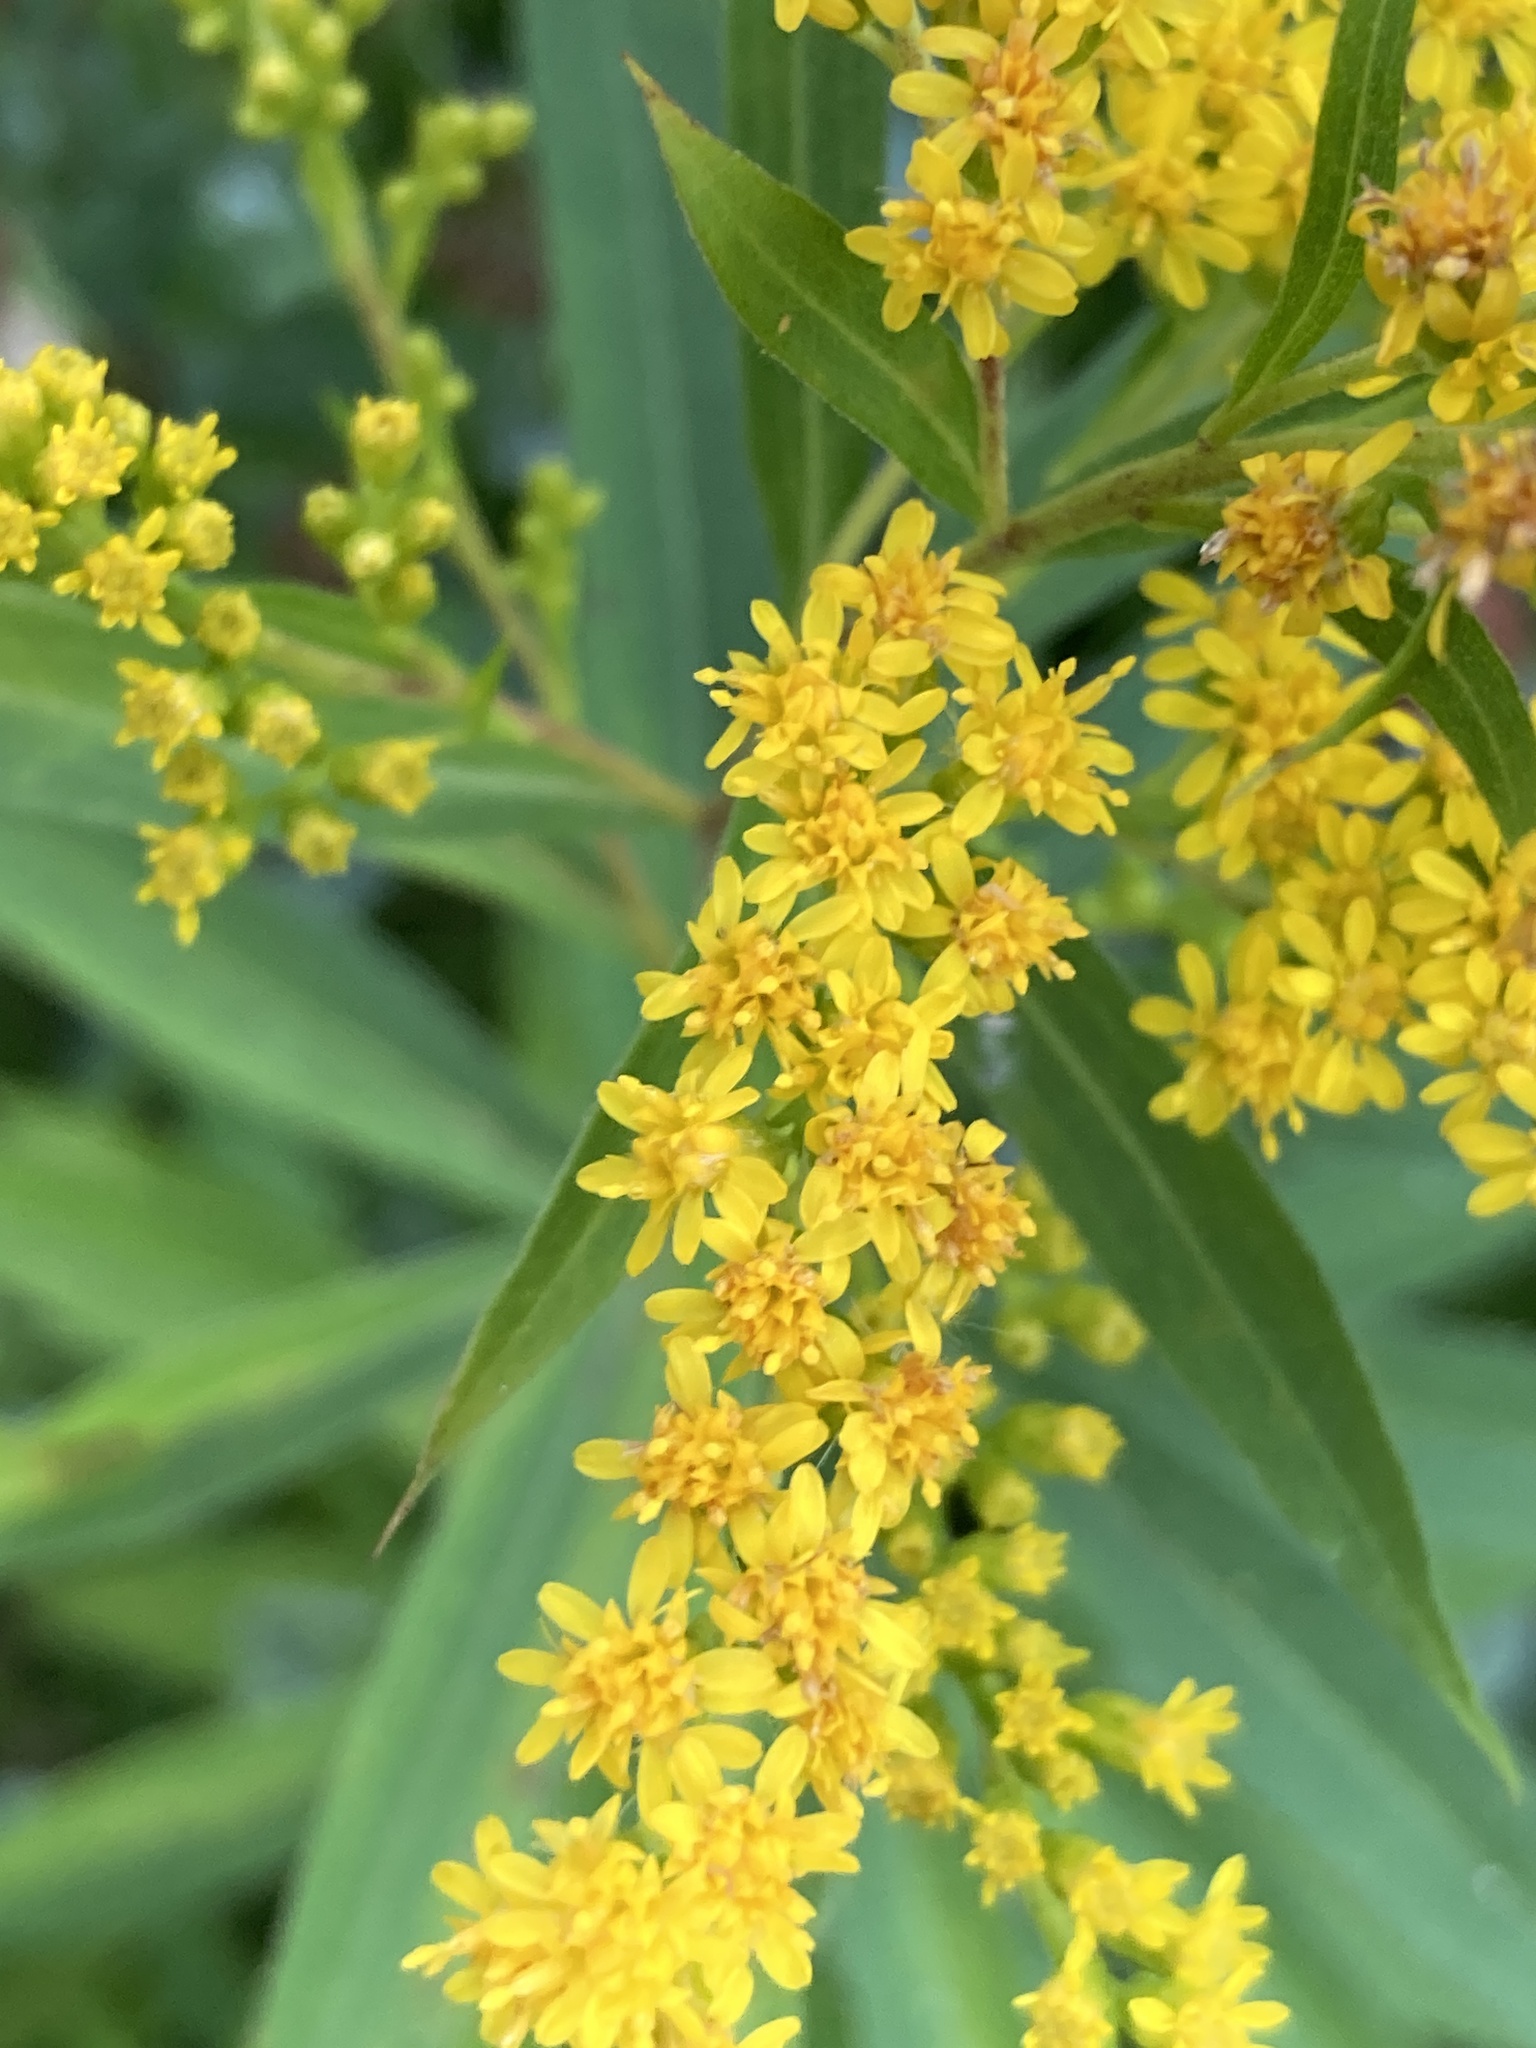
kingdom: Plantae
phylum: Tracheophyta
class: Magnoliopsida
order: Asterales
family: Asteraceae
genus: Solidago
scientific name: Solidago gigantea
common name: Giant goldenrod
